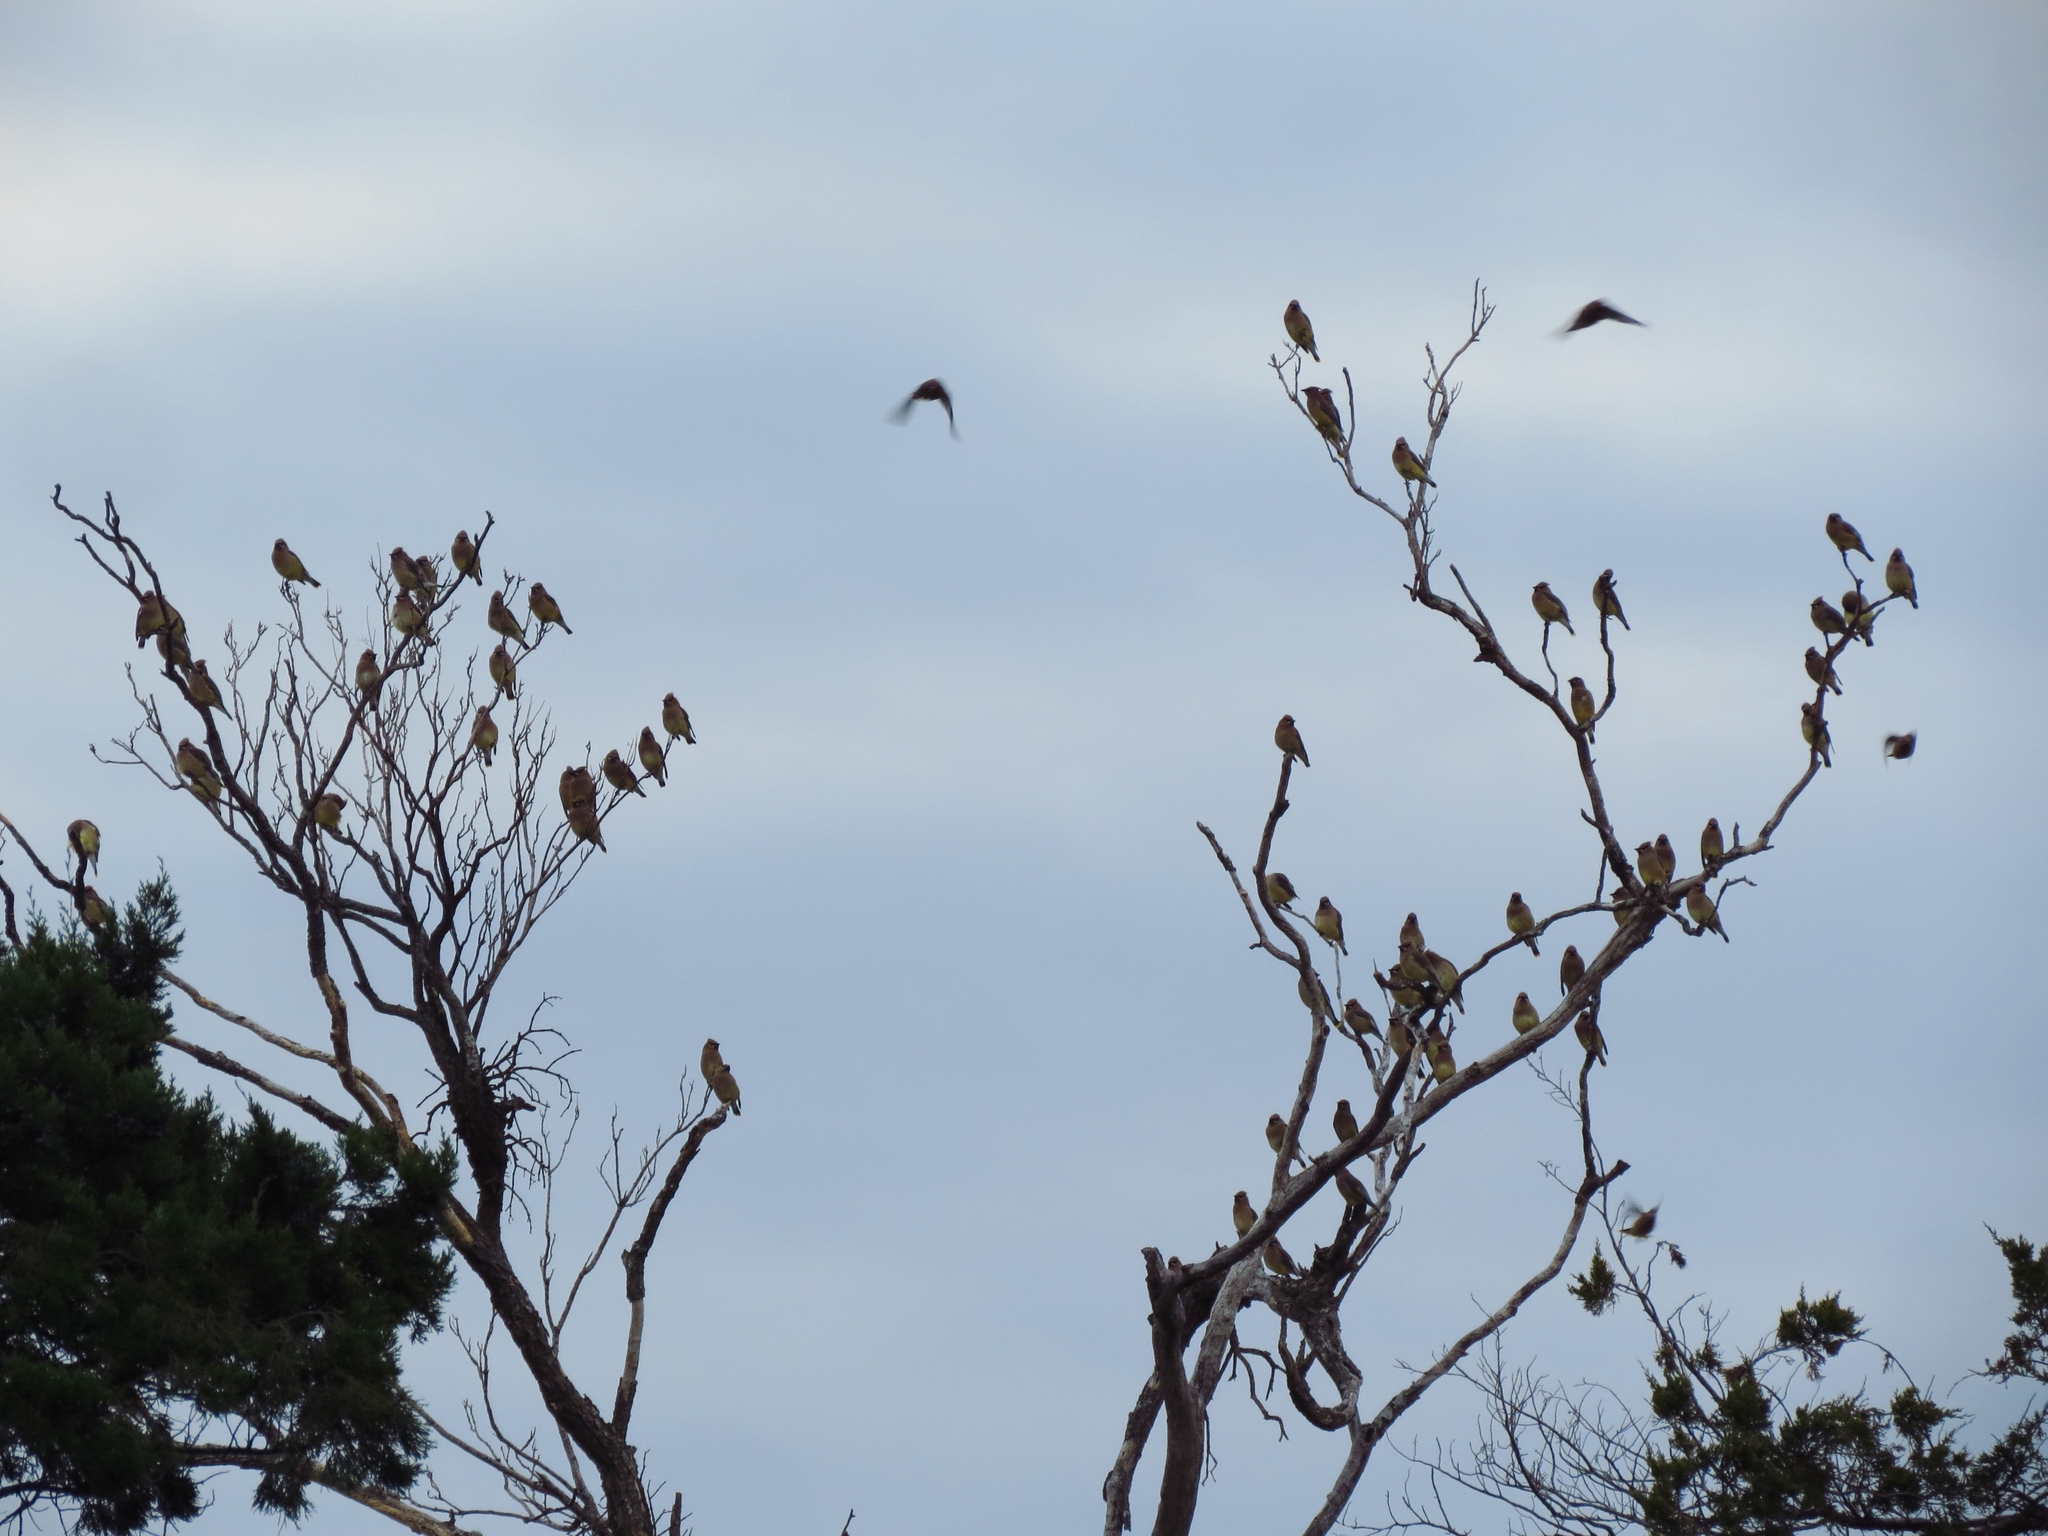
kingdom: Animalia
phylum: Chordata
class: Aves
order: Passeriformes
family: Bombycillidae
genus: Bombycilla
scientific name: Bombycilla cedrorum
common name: Cedar waxwing
